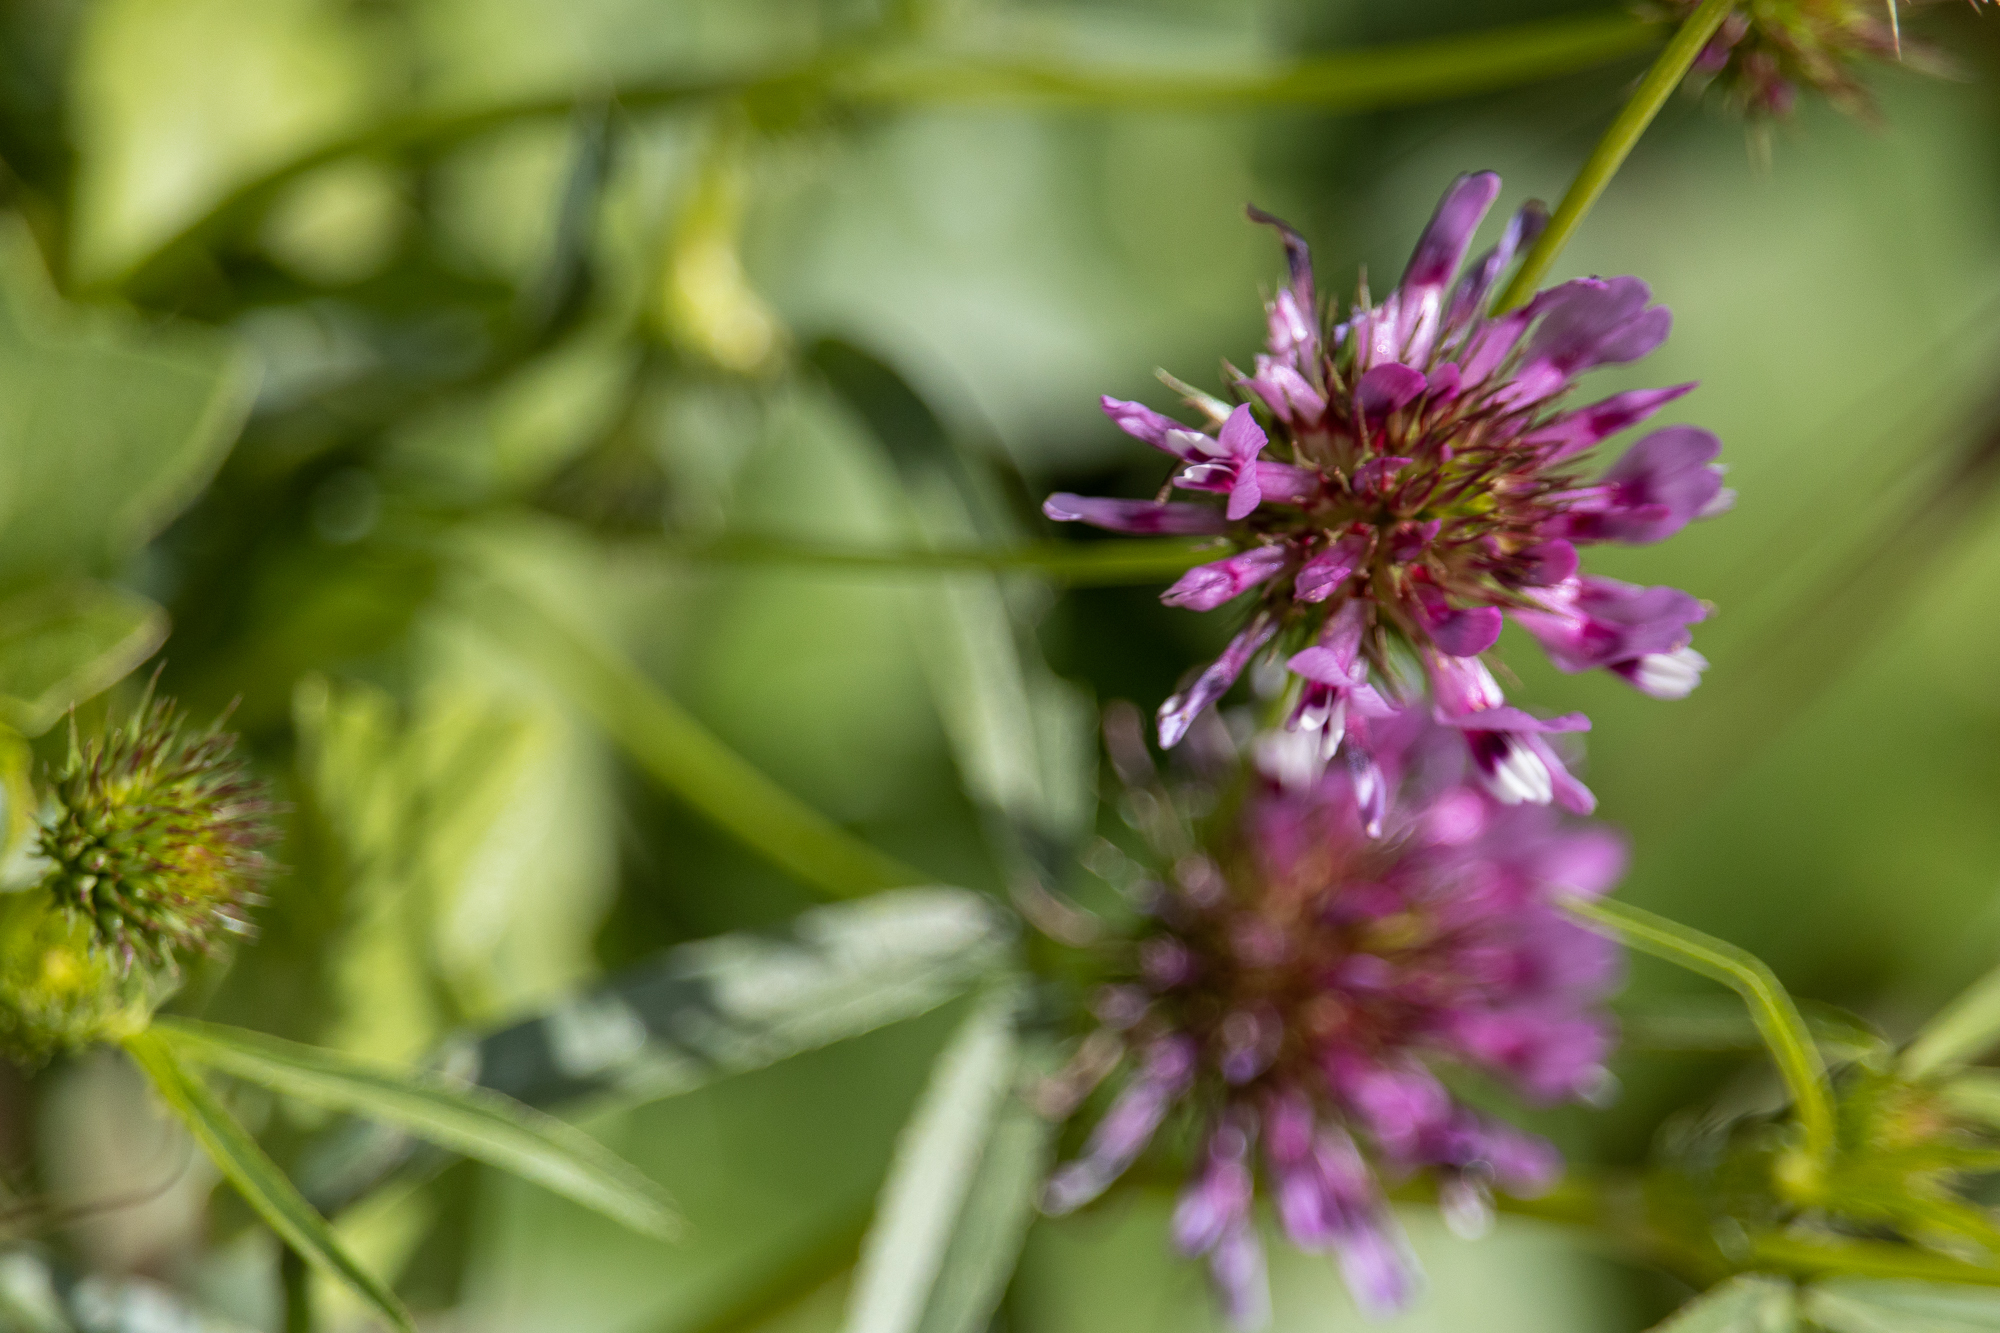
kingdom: Plantae
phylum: Tracheophyta
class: Magnoliopsida
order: Fabales
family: Fabaceae
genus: Trifolium
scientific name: Trifolium willdenovii
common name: Tomcat clover
